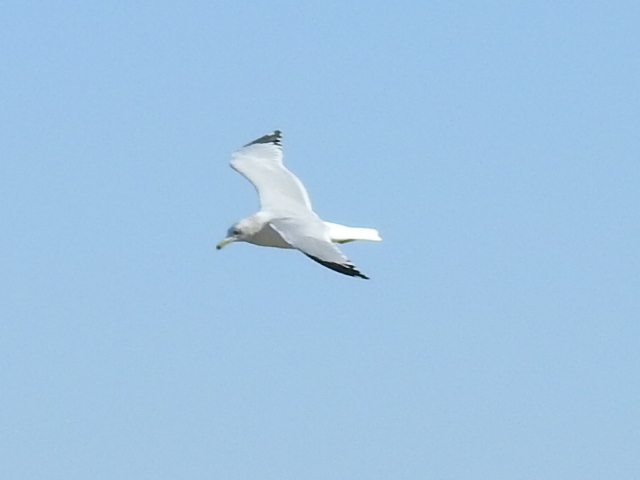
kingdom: Animalia
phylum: Chordata
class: Aves
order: Charadriiformes
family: Laridae
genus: Larus
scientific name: Larus delawarensis
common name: Ring-billed gull
